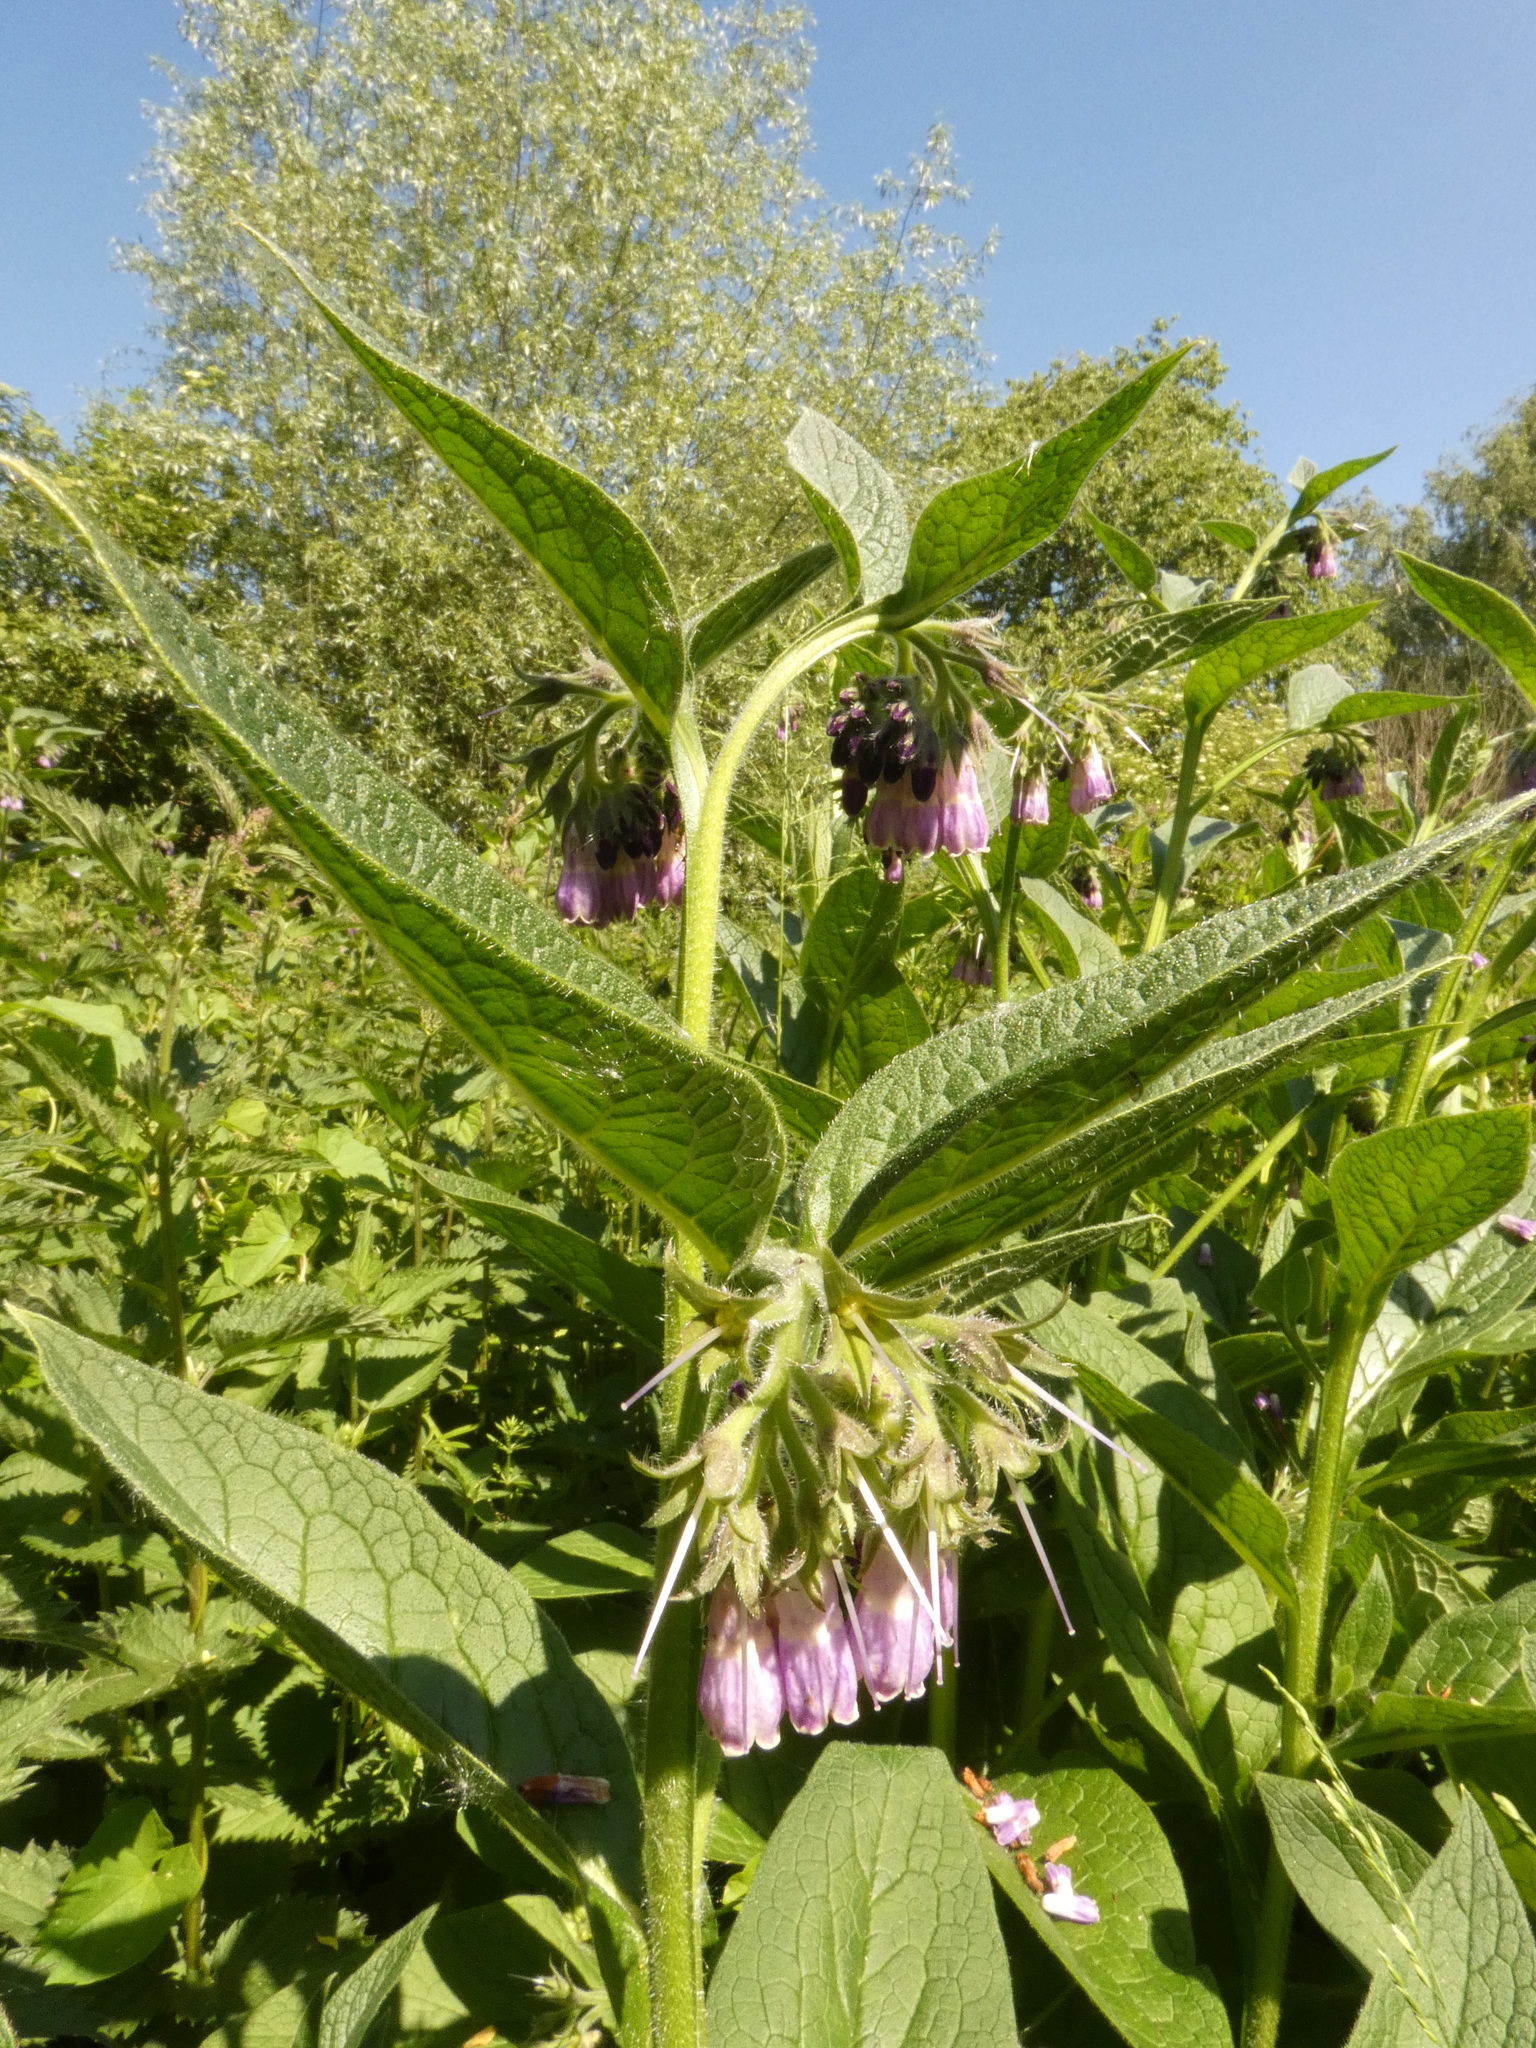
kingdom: Plantae
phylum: Tracheophyta
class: Magnoliopsida
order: Boraginales
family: Boraginaceae
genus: Symphytum
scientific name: Symphytum officinale
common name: Common comfrey
